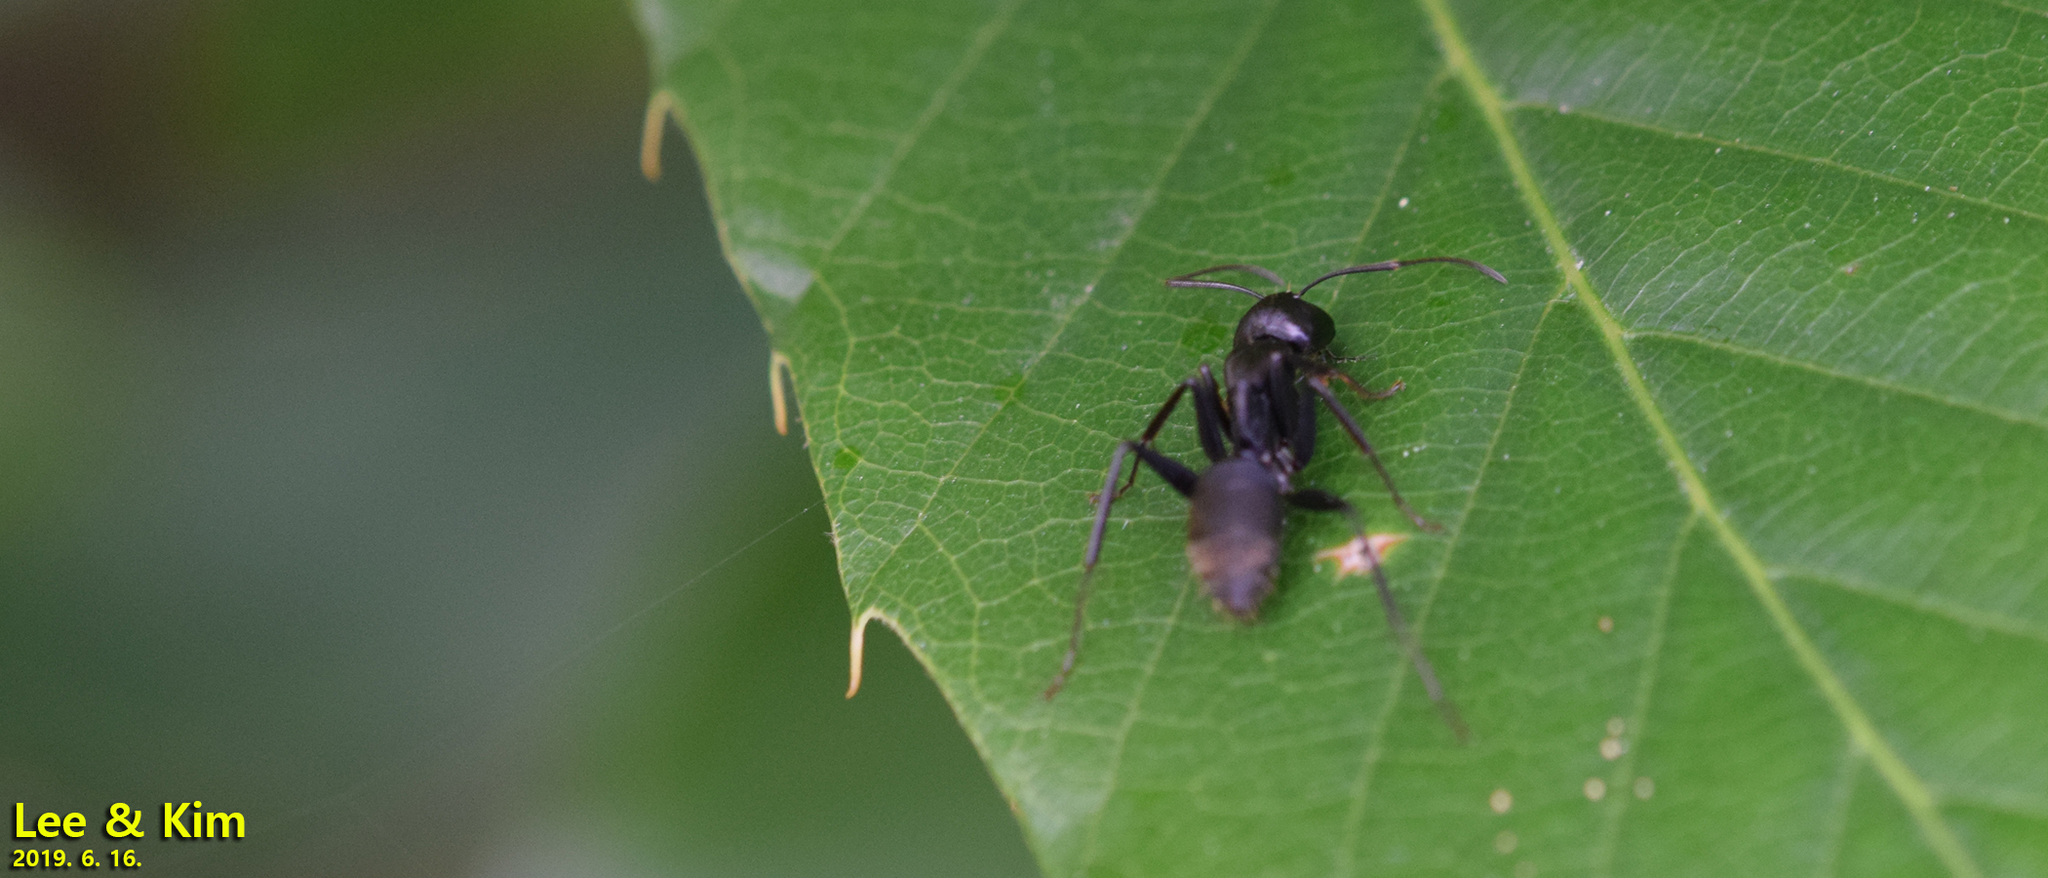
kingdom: Animalia
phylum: Arthropoda
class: Insecta
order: Hymenoptera
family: Formicidae
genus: Camponotus
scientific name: Camponotus japonicus
